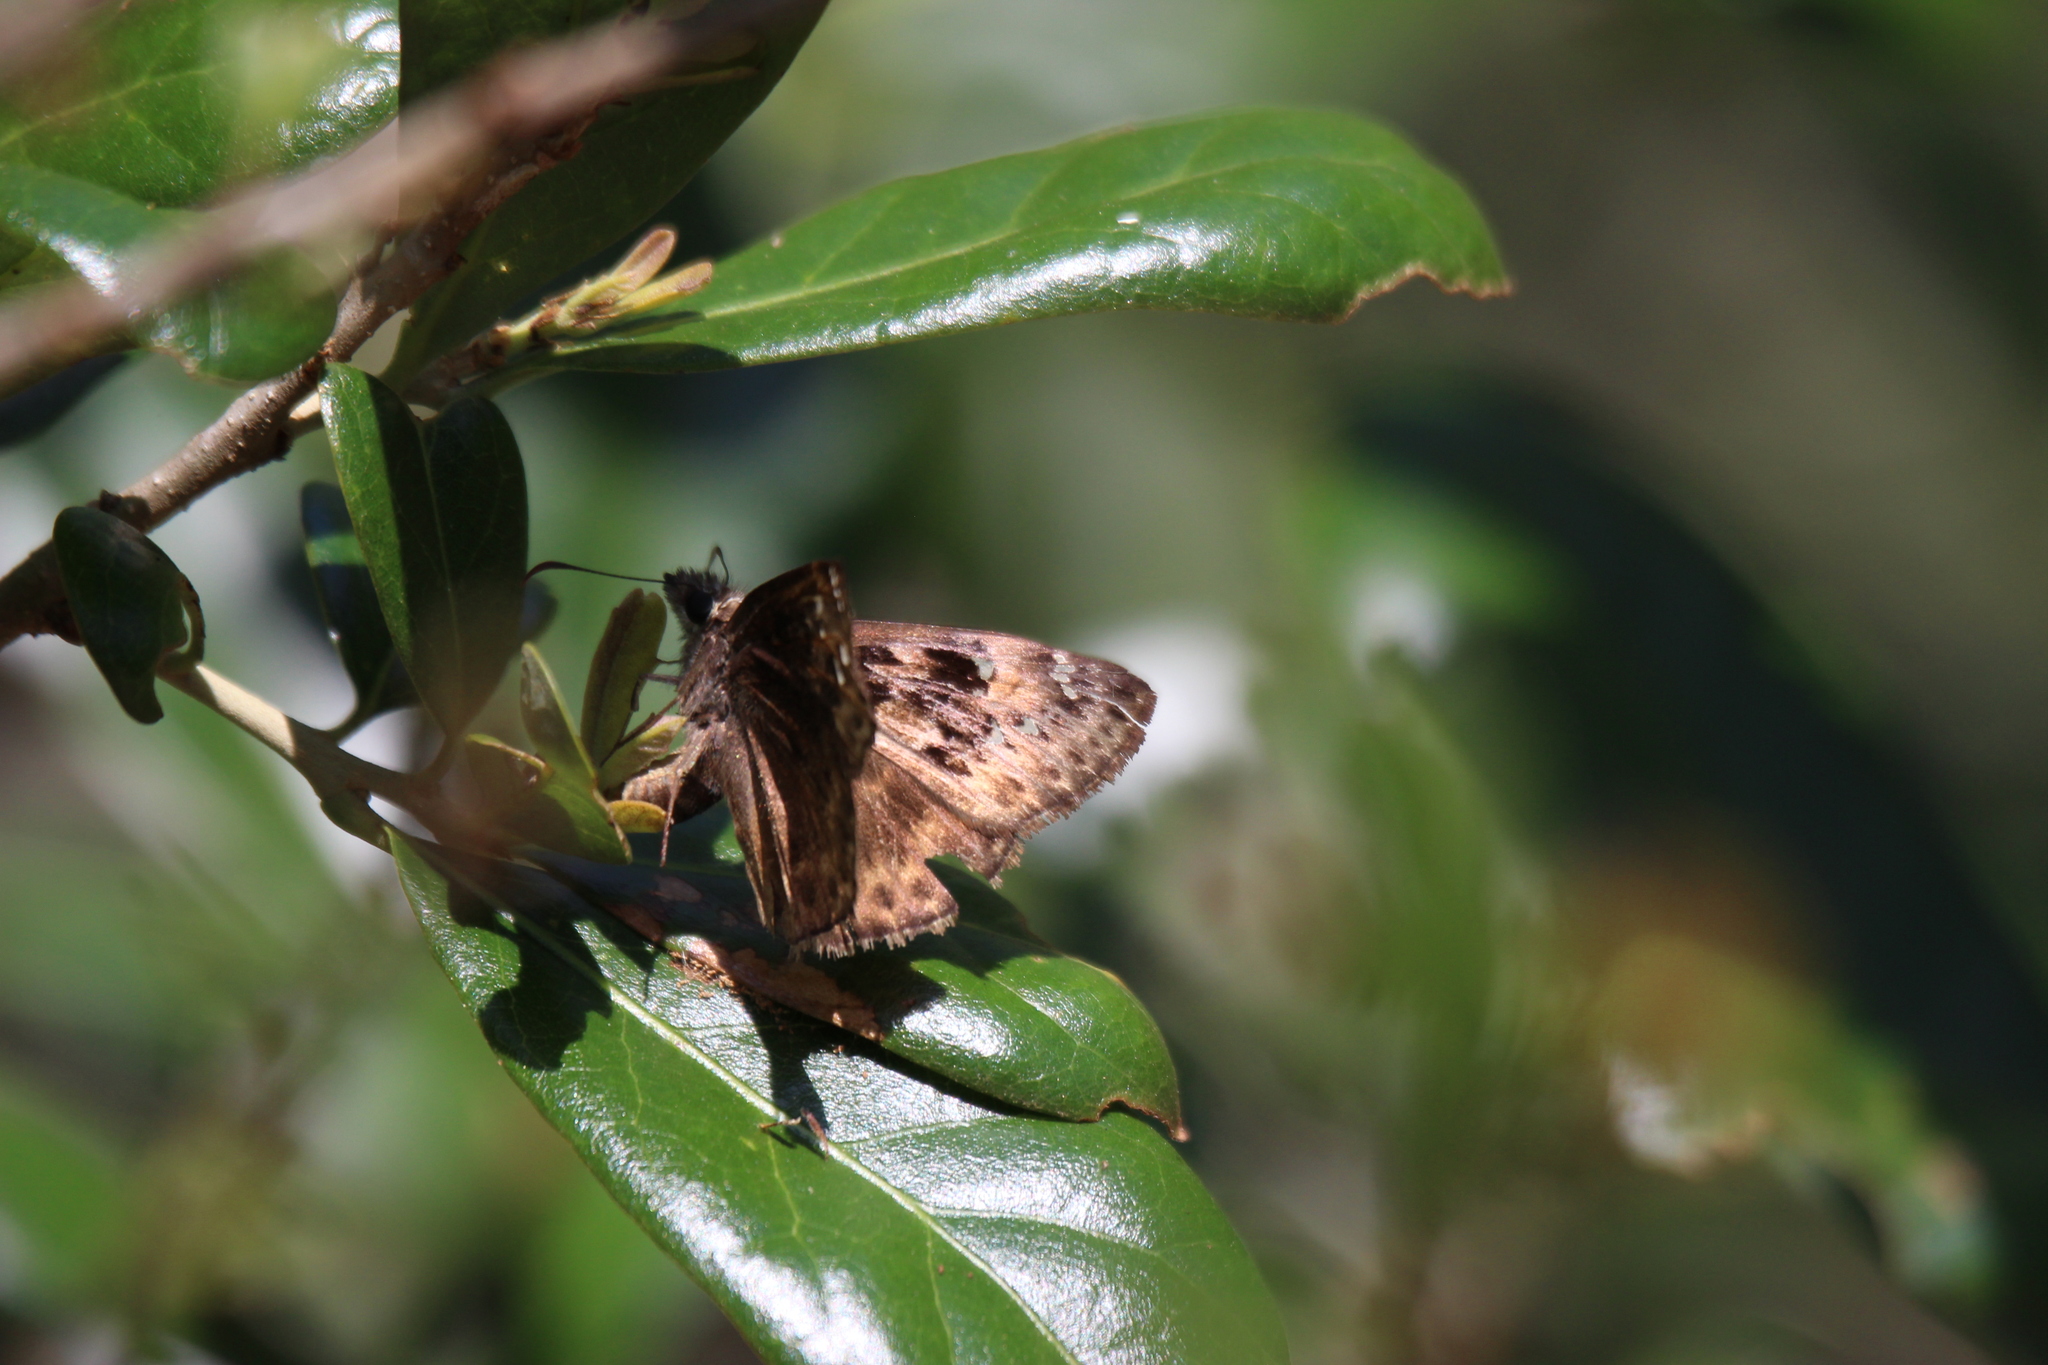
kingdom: Animalia
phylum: Arthropoda
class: Insecta
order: Lepidoptera
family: Hesperiidae
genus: Erynnis
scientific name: Erynnis horatius
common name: Horace's duskywing
